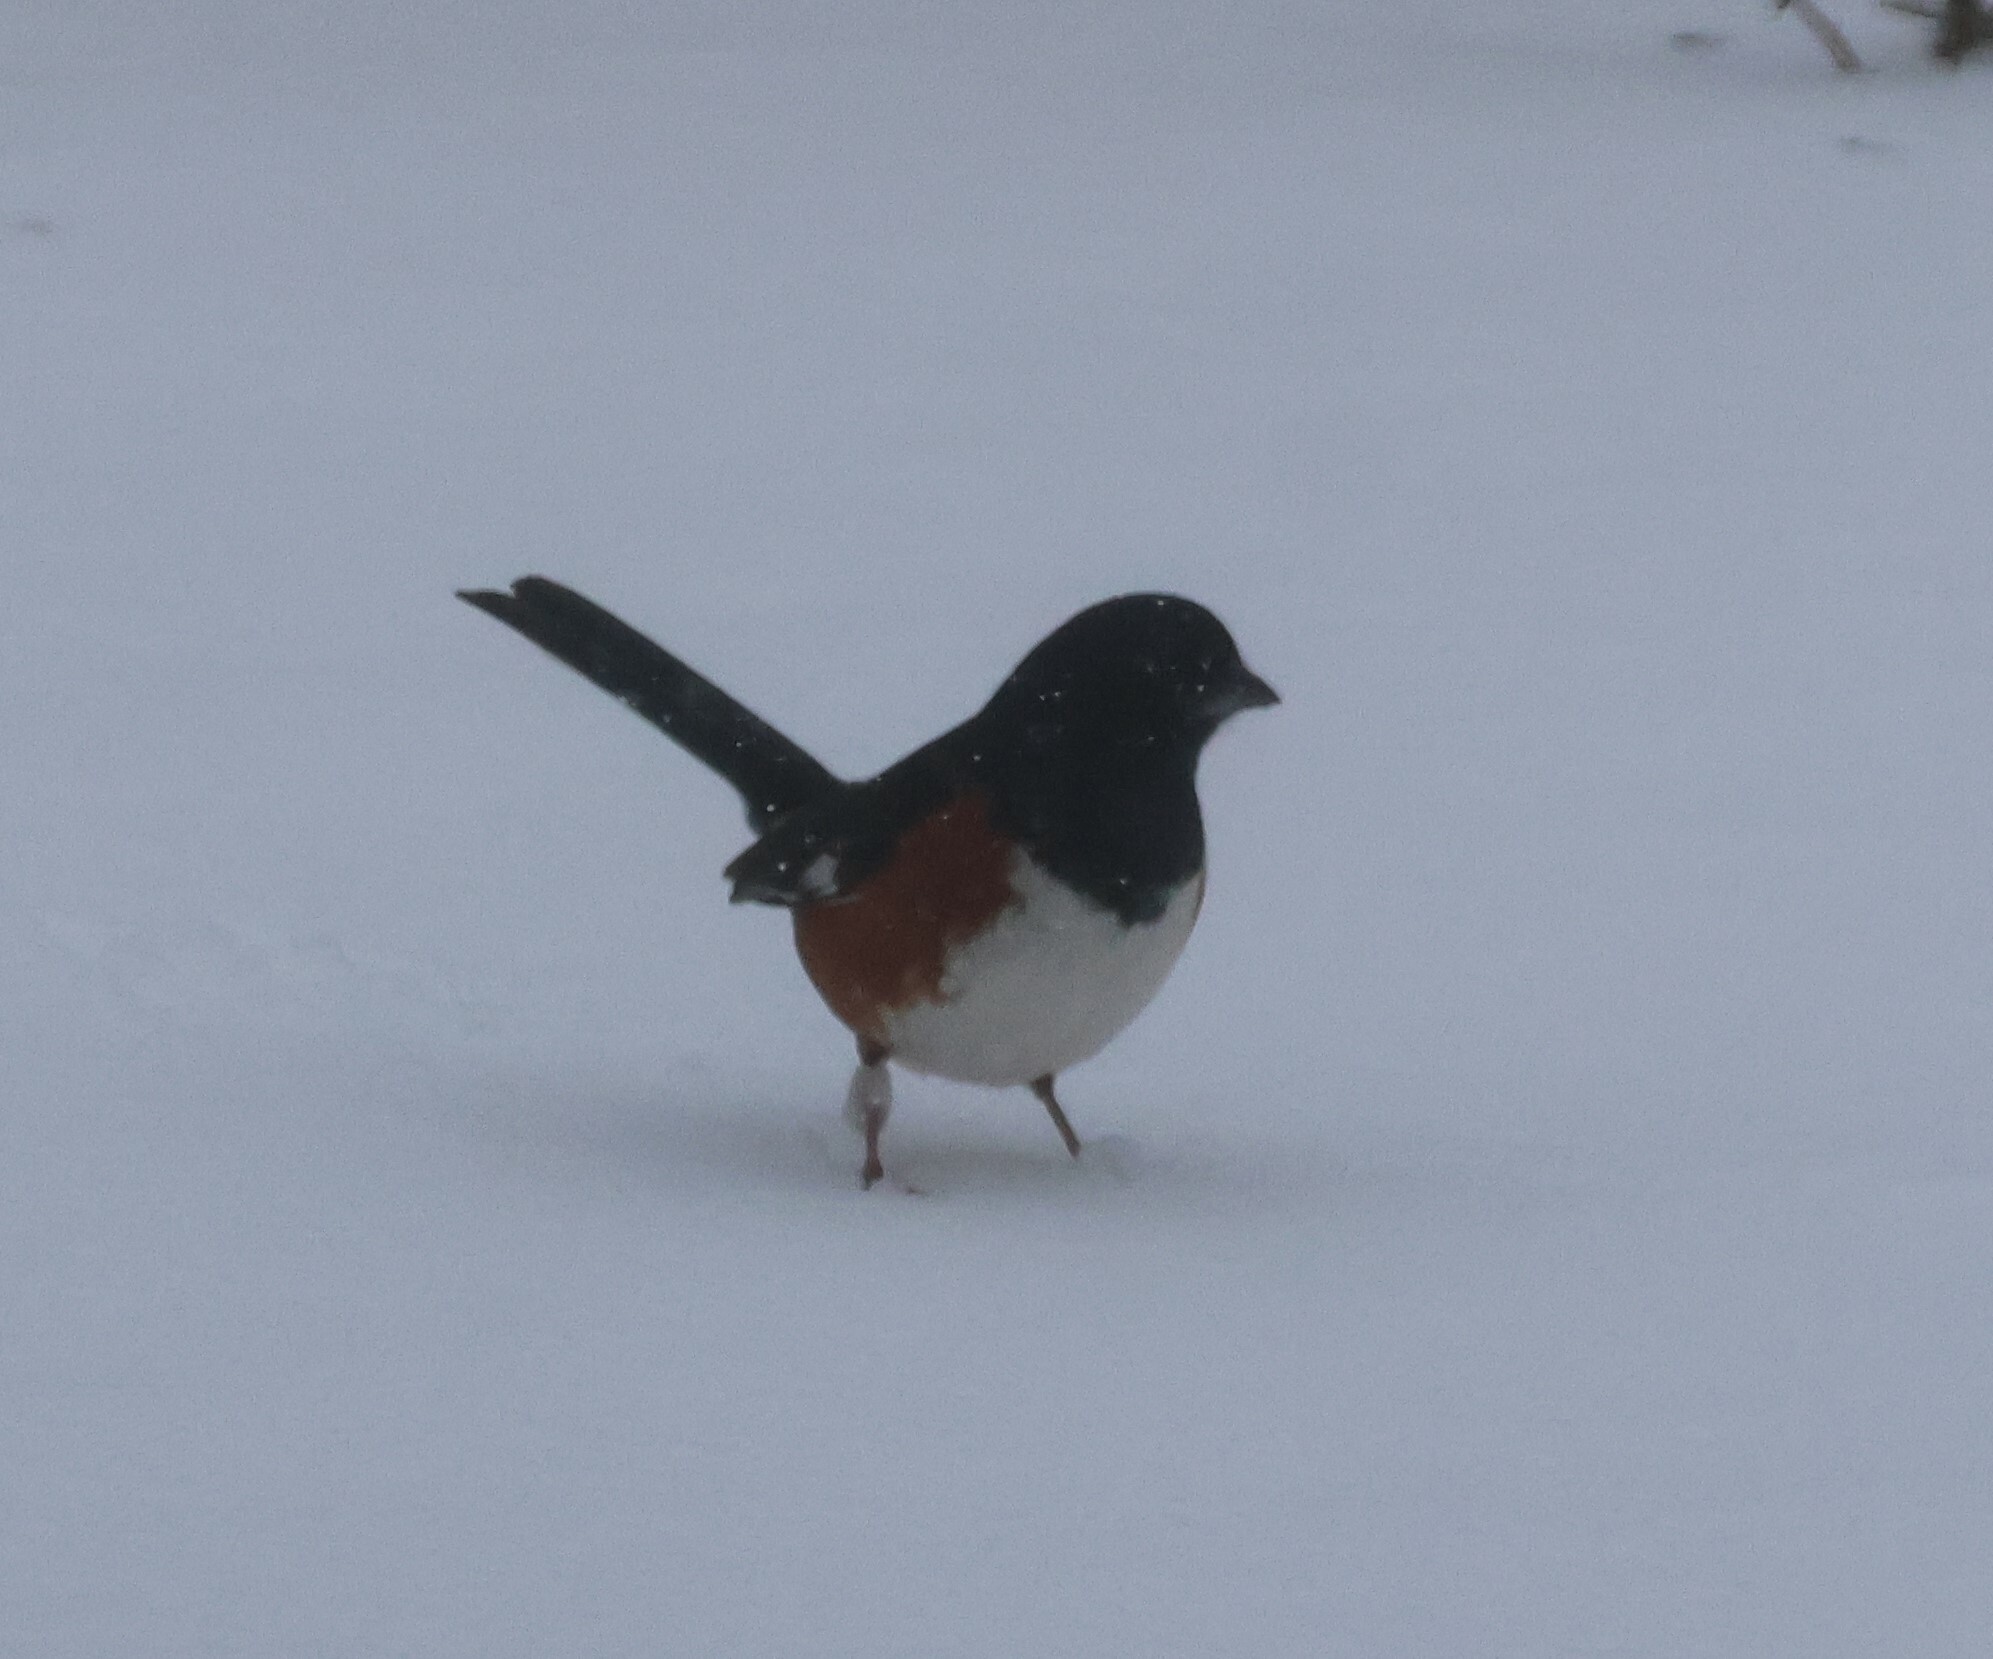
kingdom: Animalia
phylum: Chordata
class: Aves
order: Passeriformes
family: Passerellidae
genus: Pipilo
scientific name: Pipilo erythrophthalmus
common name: Eastern towhee
